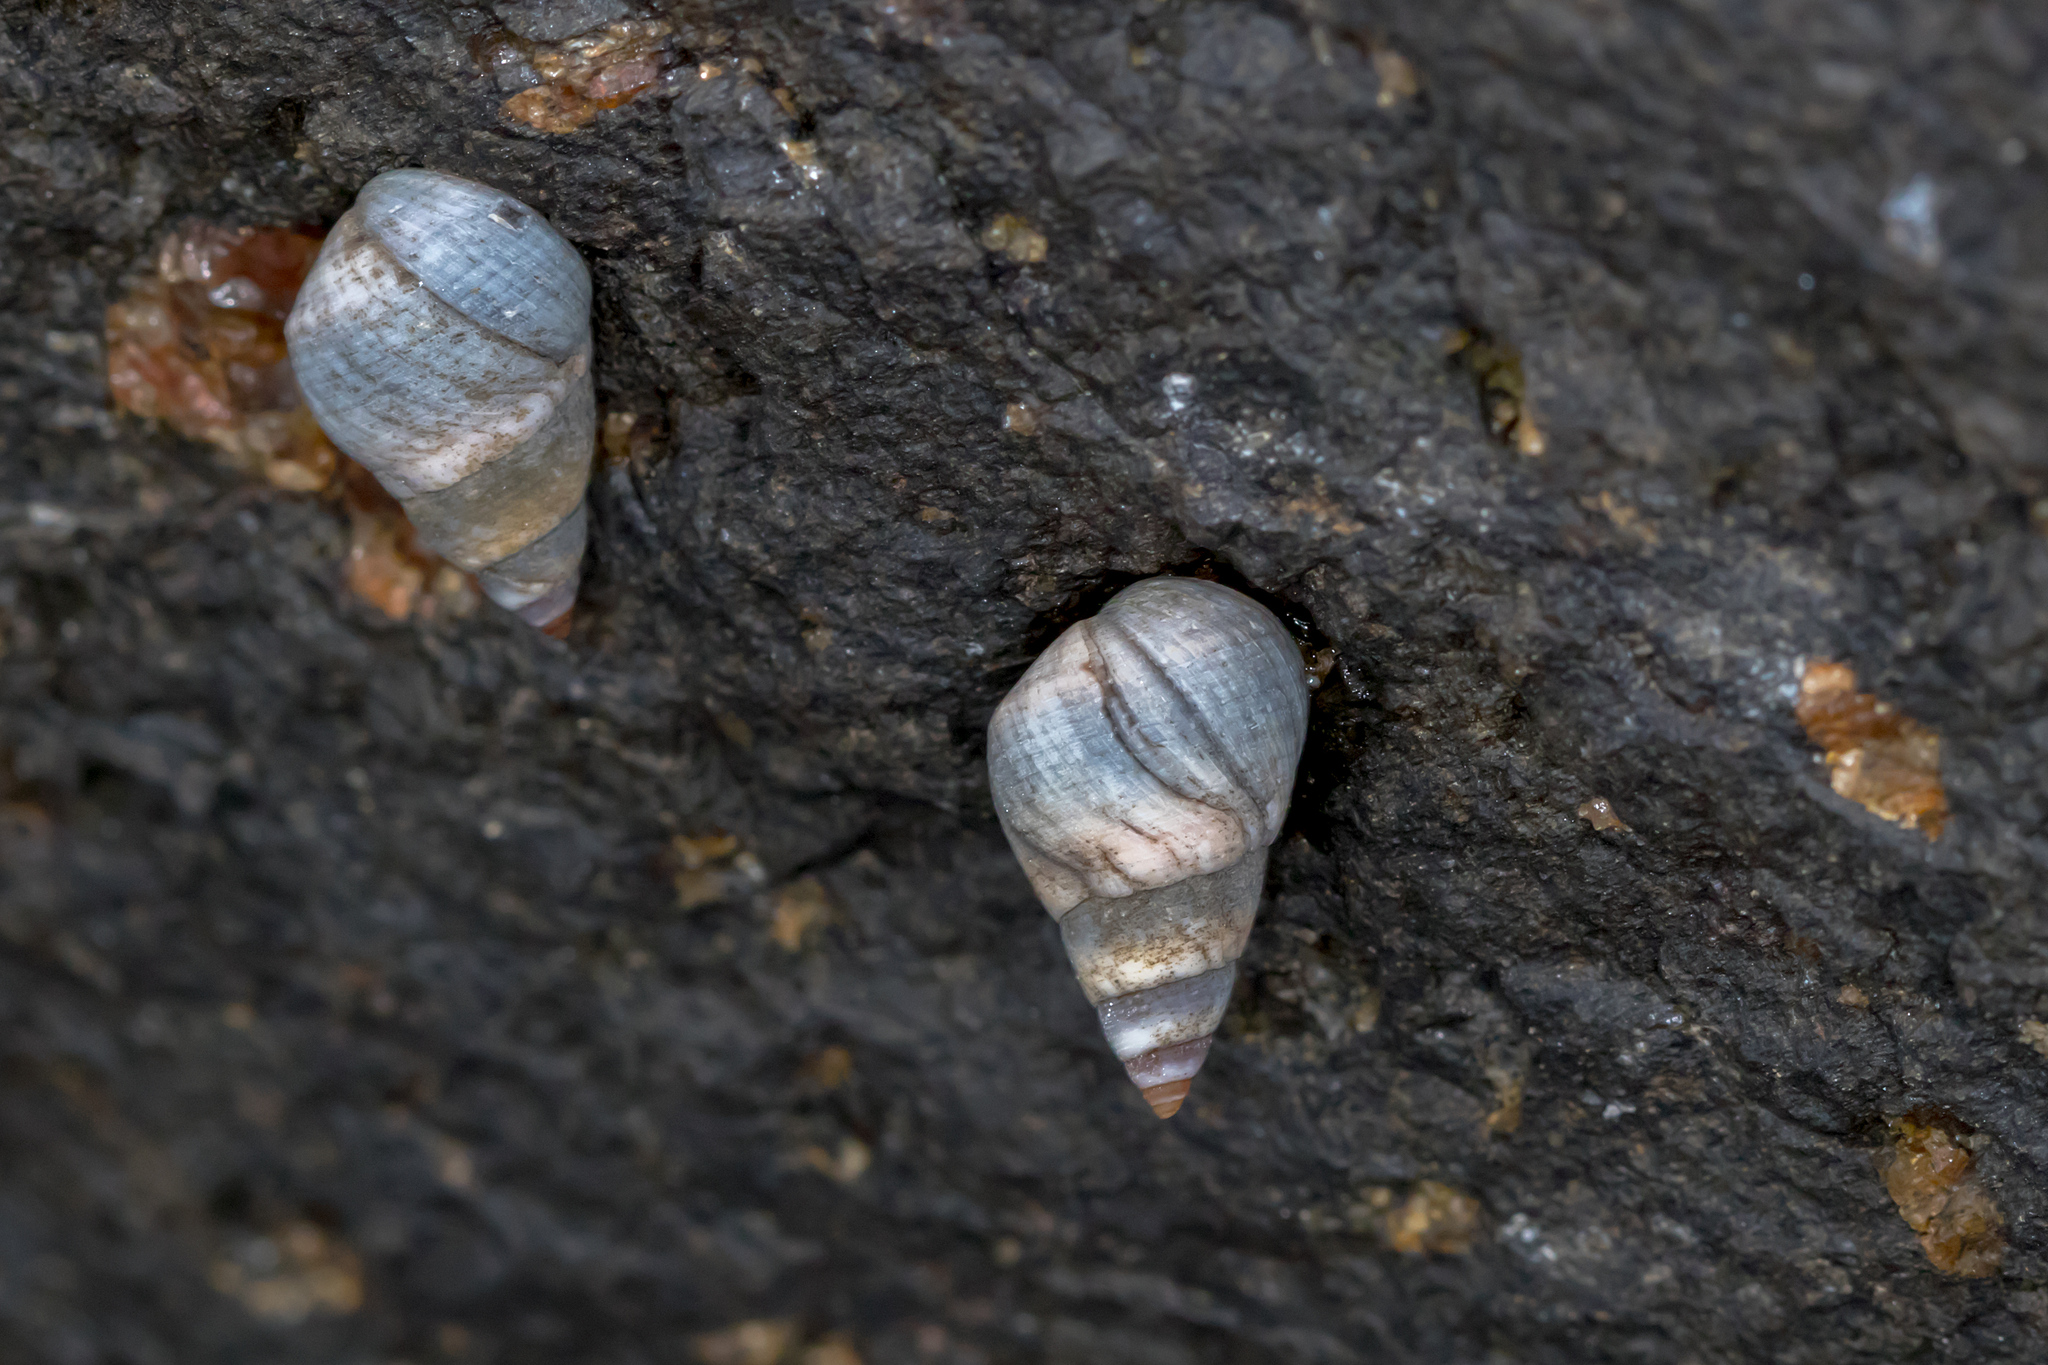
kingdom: Animalia
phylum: Mollusca
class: Gastropoda
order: Littorinimorpha
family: Littorinidae
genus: Austrolittorina
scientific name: Austrolittorina unifasciata
